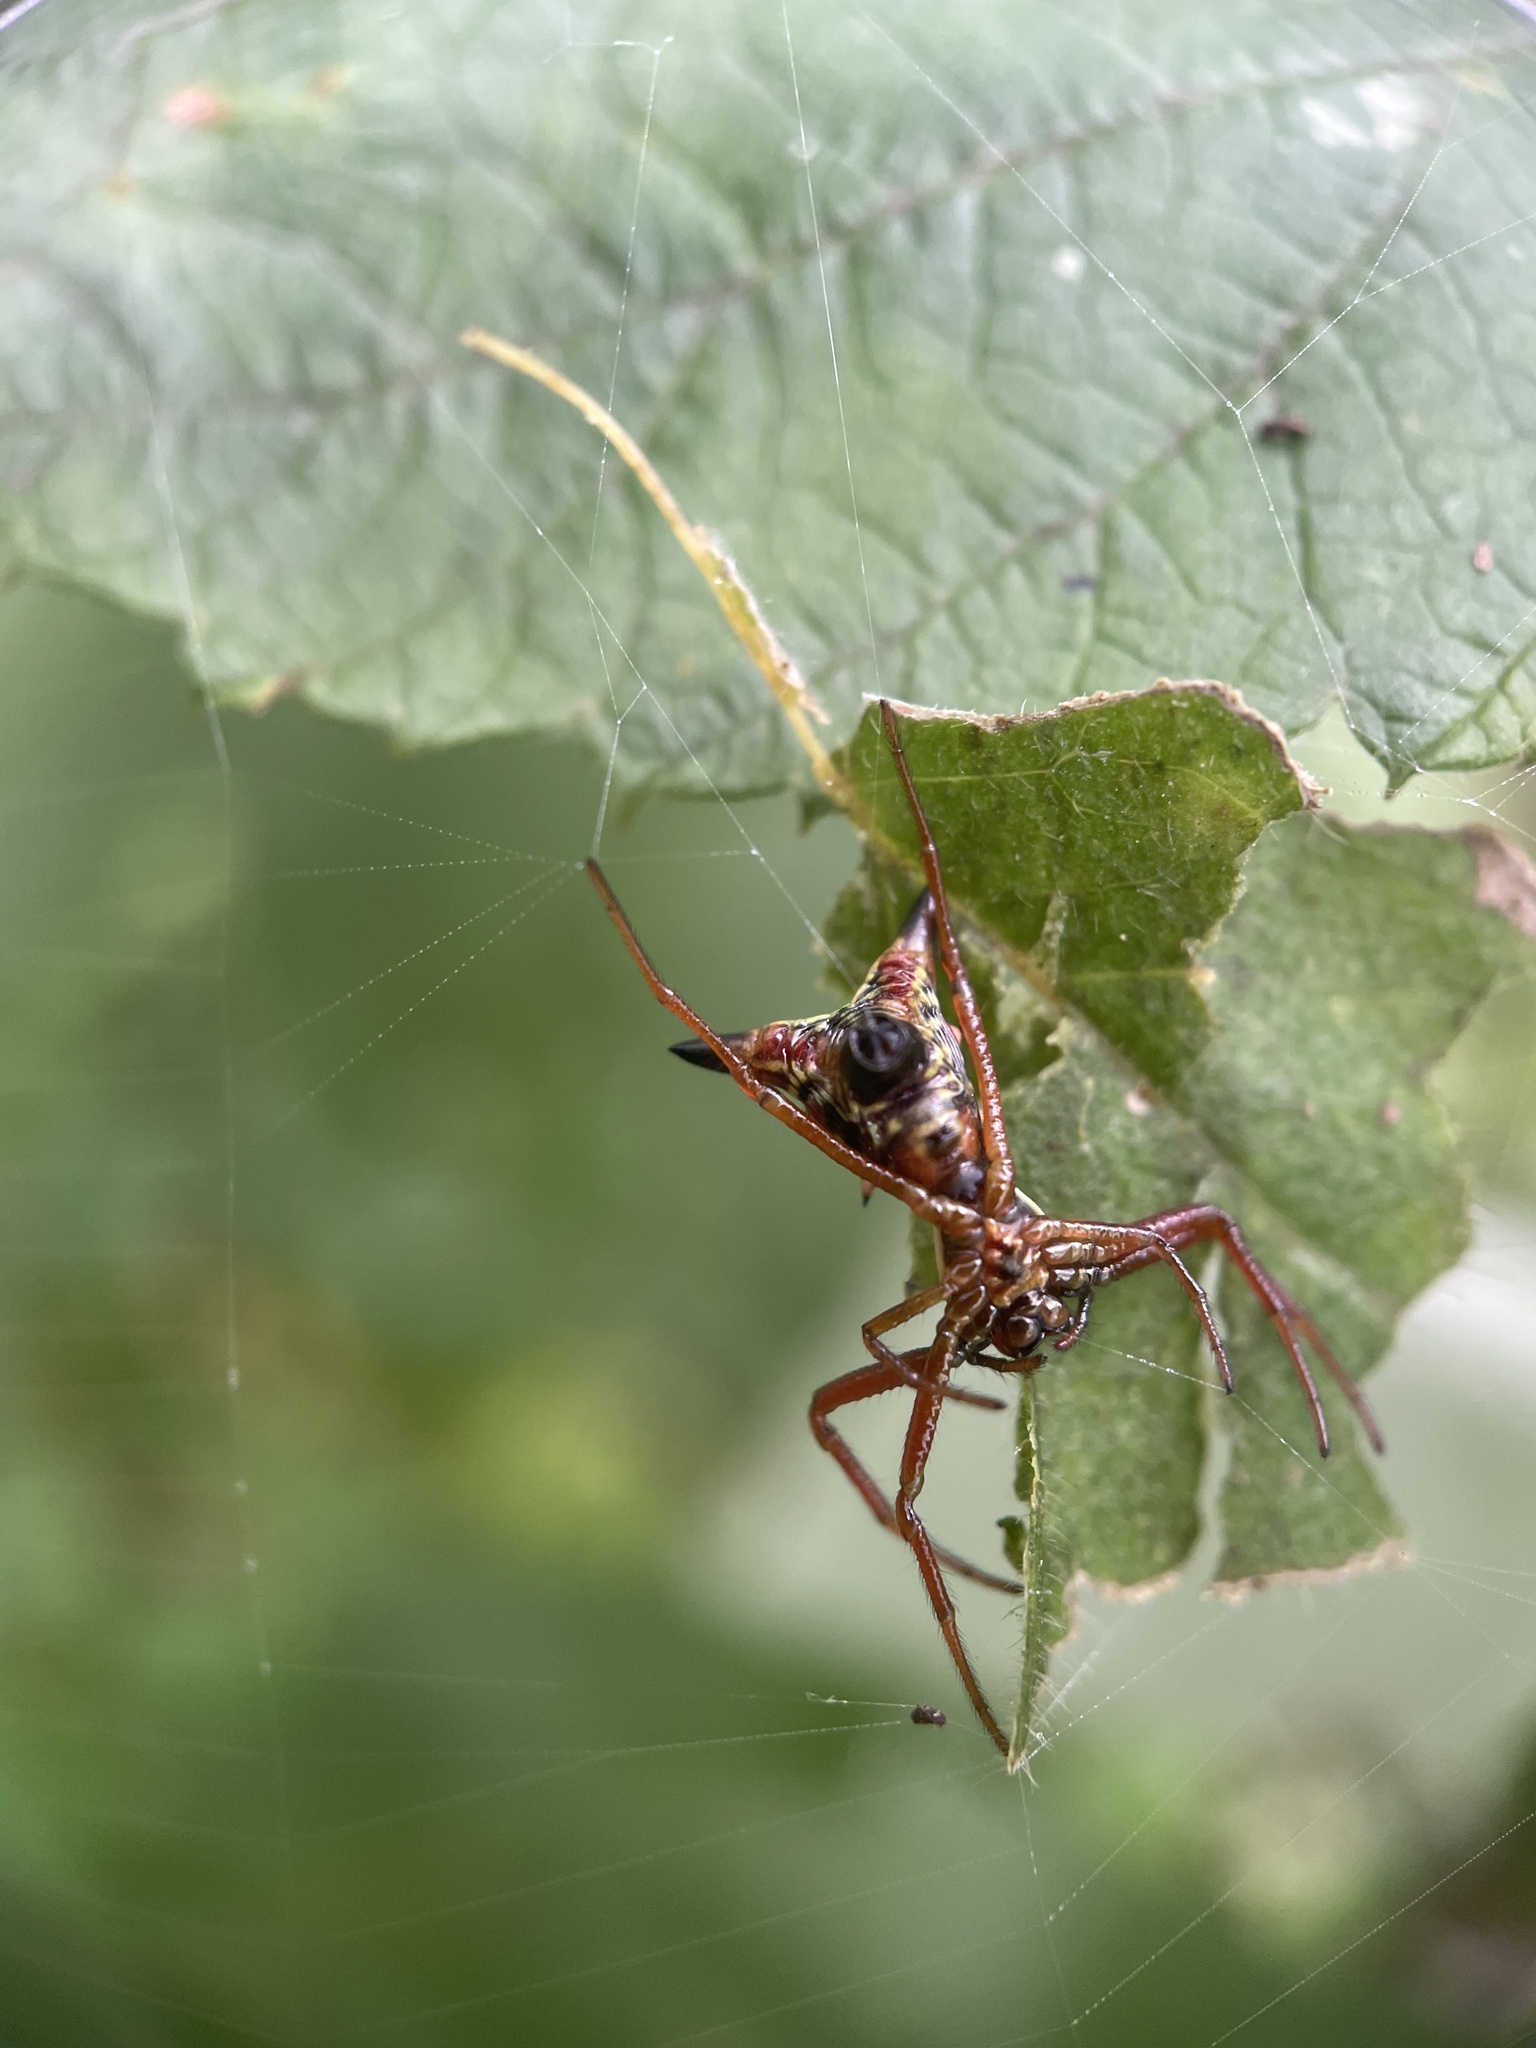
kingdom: Animalia
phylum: Arthropoda
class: Arachnida
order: Araneae
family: Araneidae
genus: Micrathena
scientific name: Micrathena sagittata
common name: Orb weavers
